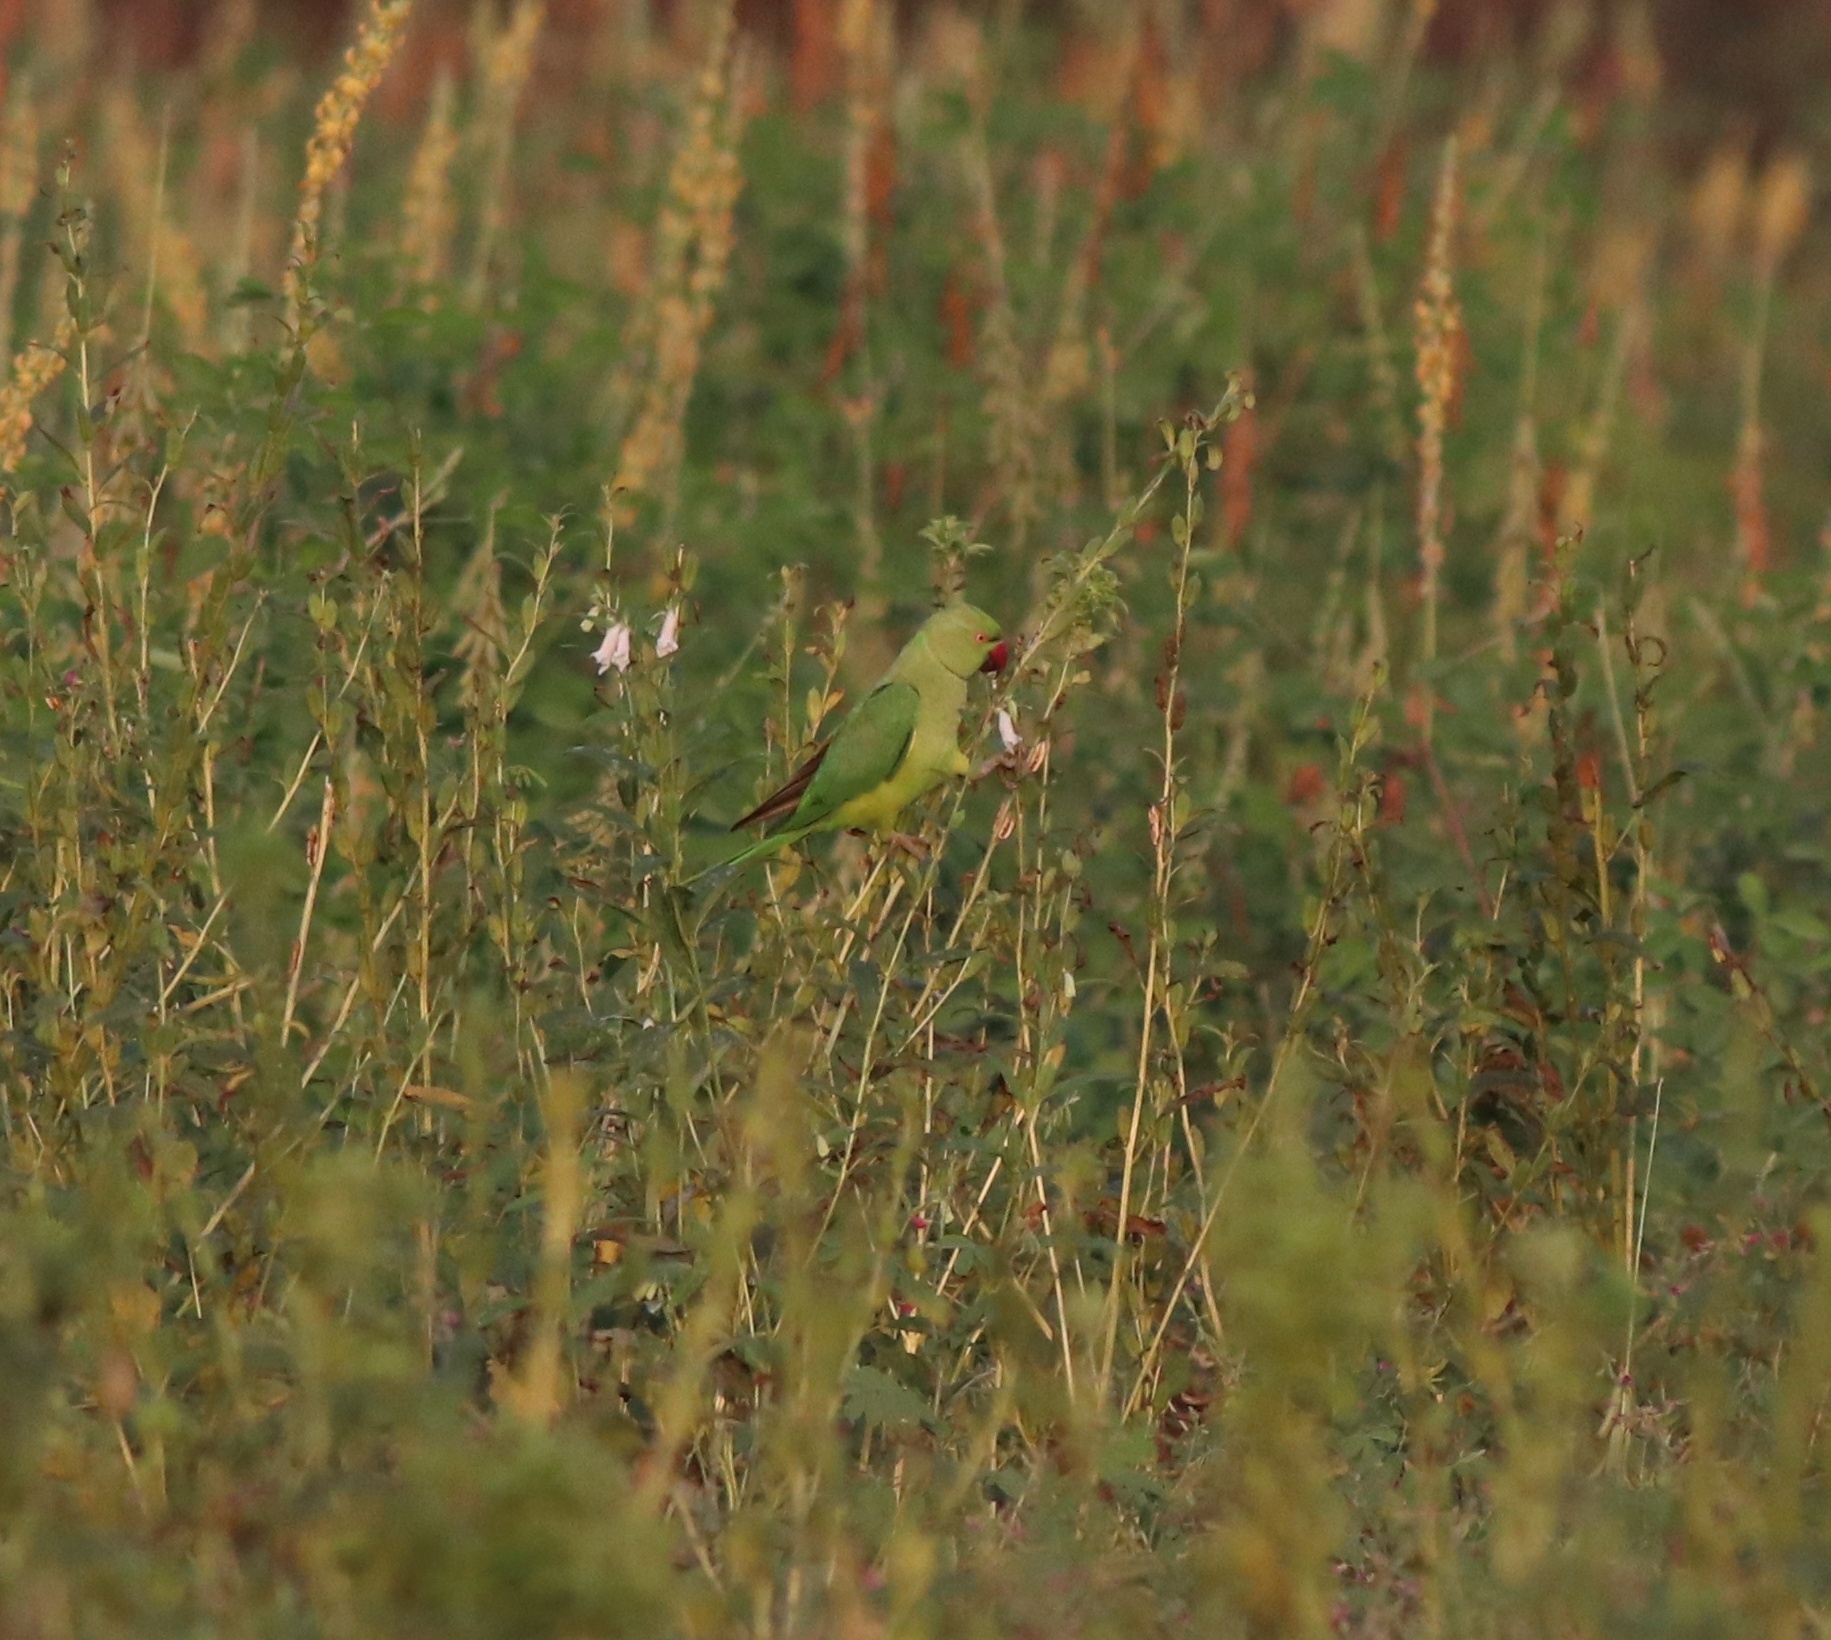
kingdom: Animalia
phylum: Chordata
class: Aves
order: Psittaciformes
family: Psittacidae
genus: Psittacula
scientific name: Psittacula krameri
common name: Rose-ringed parakeet
